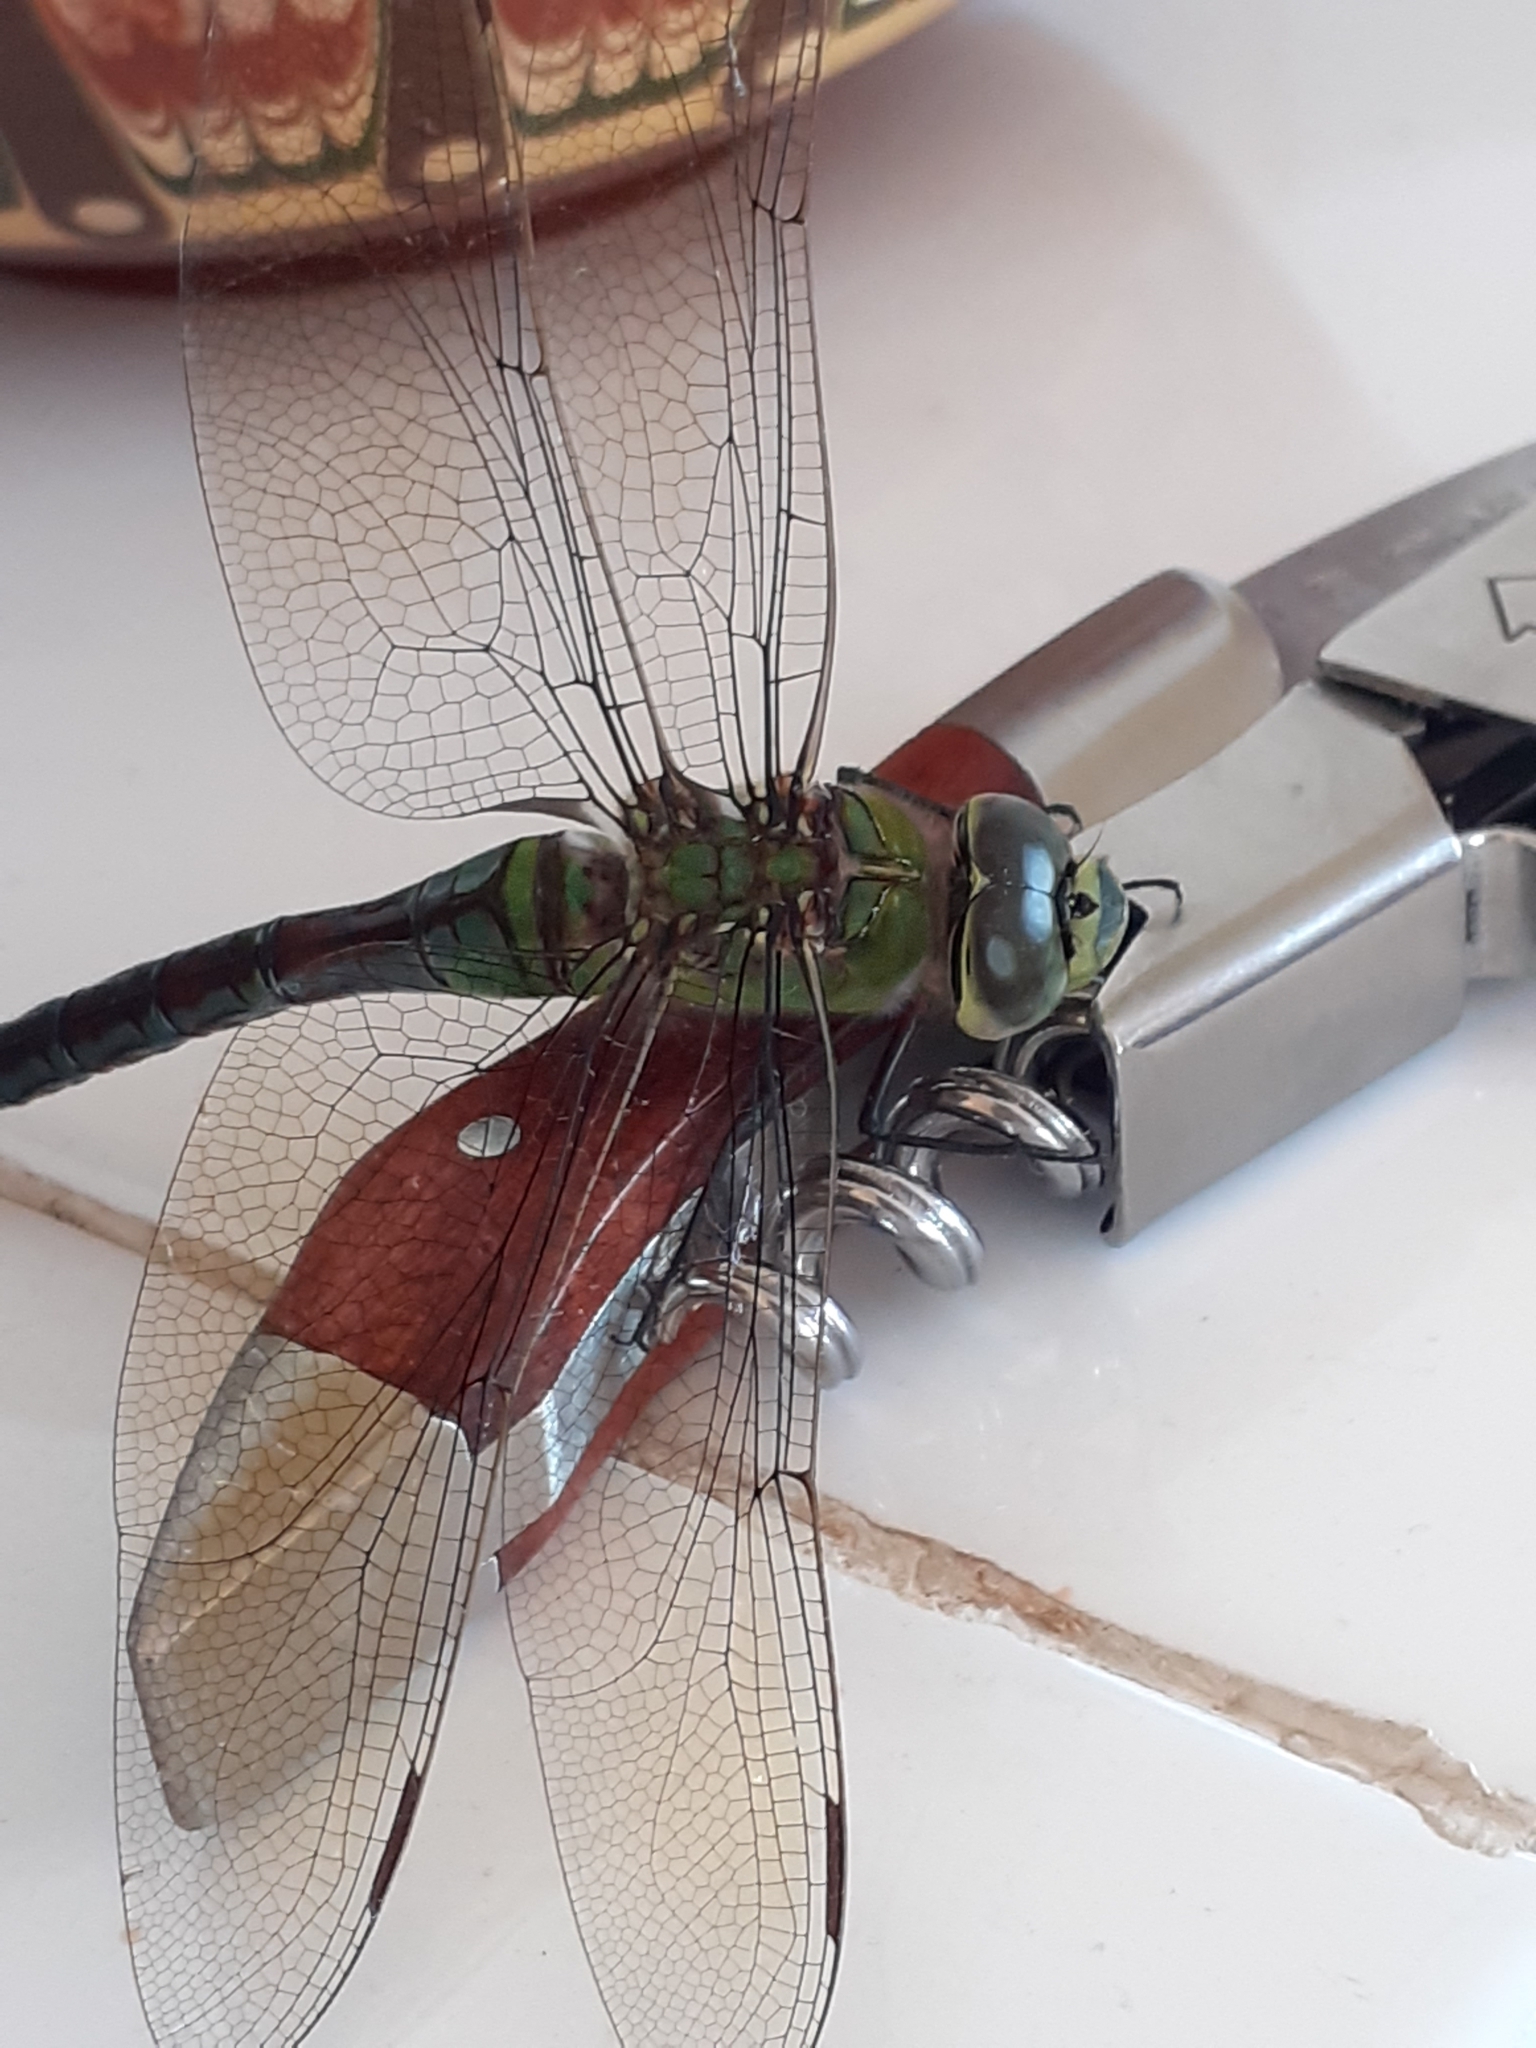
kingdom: Animalia
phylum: Arthropoda
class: Insecta
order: Odonata
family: Aeshnidae
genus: Anax
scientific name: Anax imperator
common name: Emperor dragonfly
